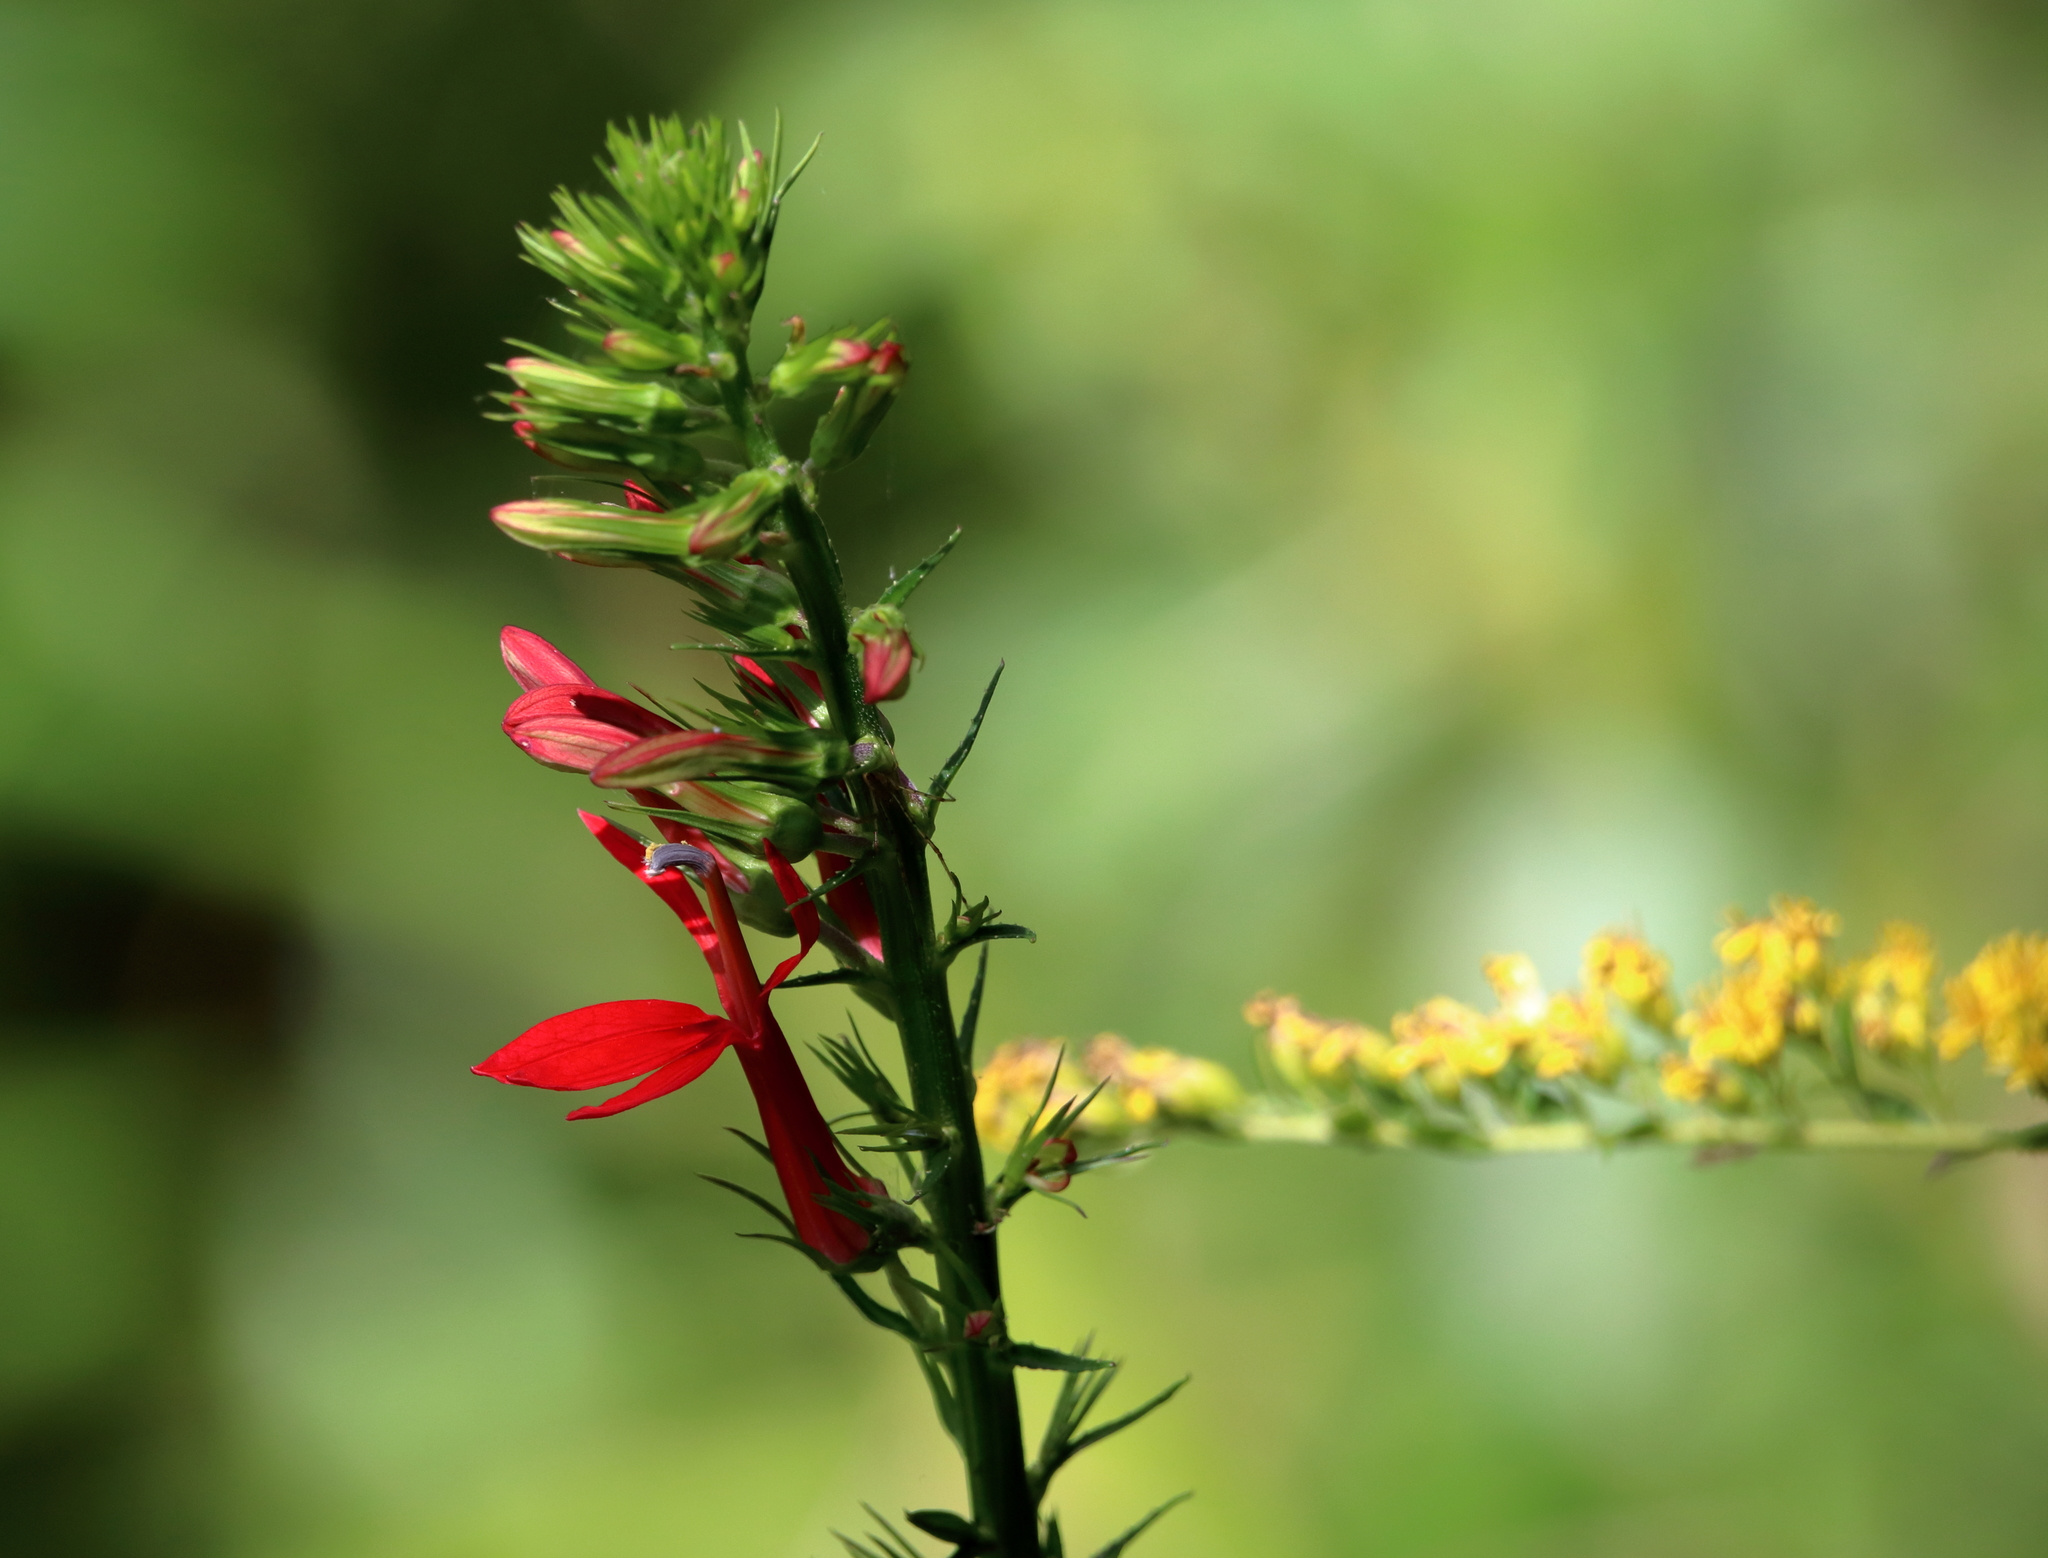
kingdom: Plantae
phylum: Tracheophyta
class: Magnoliopsida
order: Asterales
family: Campanulaceae
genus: Lobelia
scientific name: Lobelia cardinalis
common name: Cardinal flower
